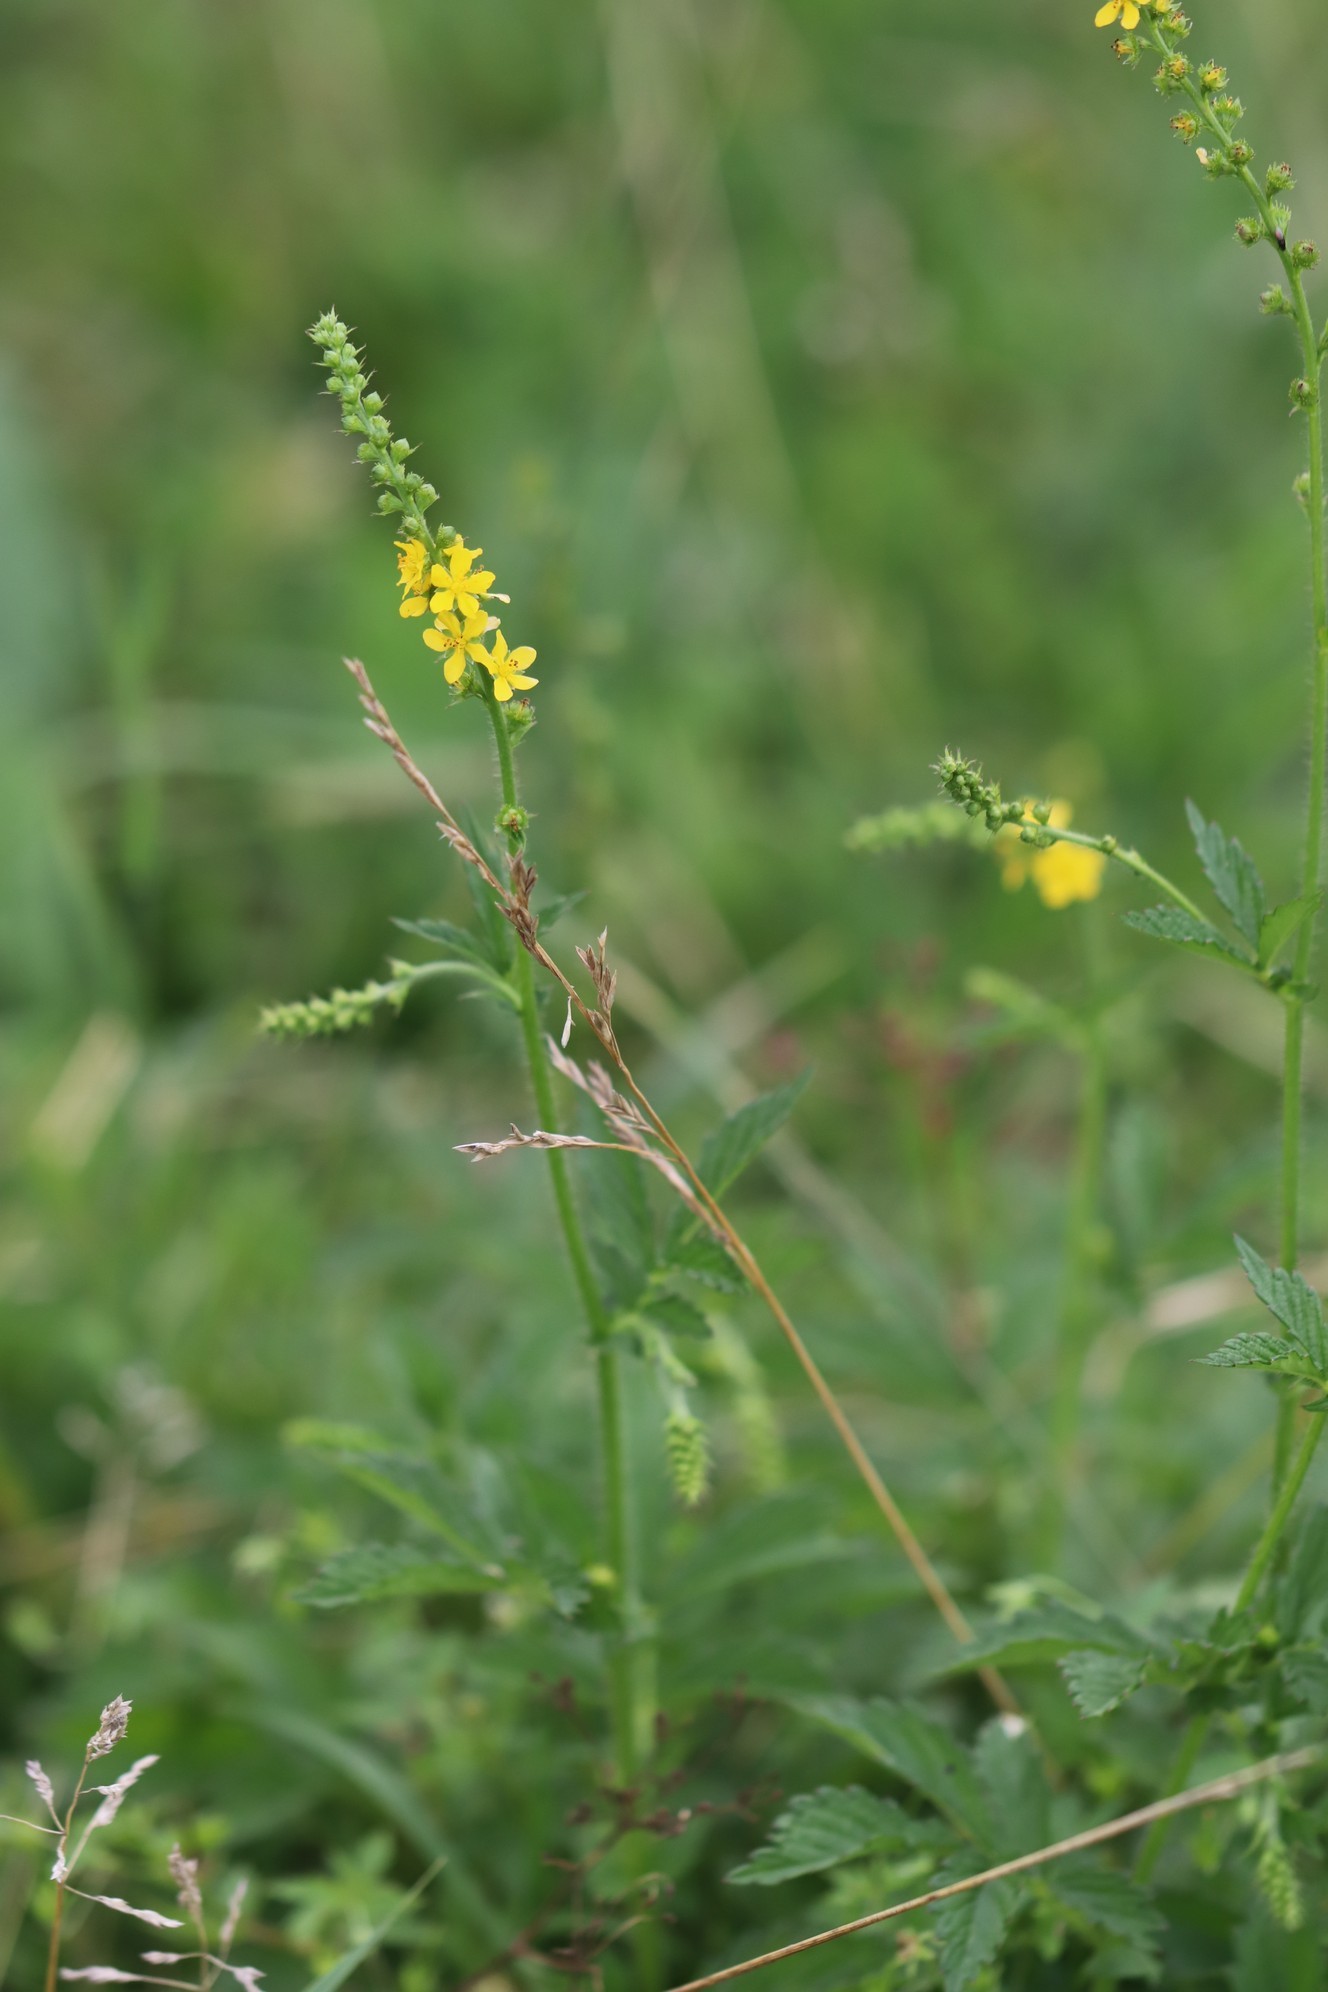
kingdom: Plantae
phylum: Tracheophyta
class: Magnoliopsida
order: Rosales
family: Rosaceae
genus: Agrimonia
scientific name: Agrimonia pilosa
